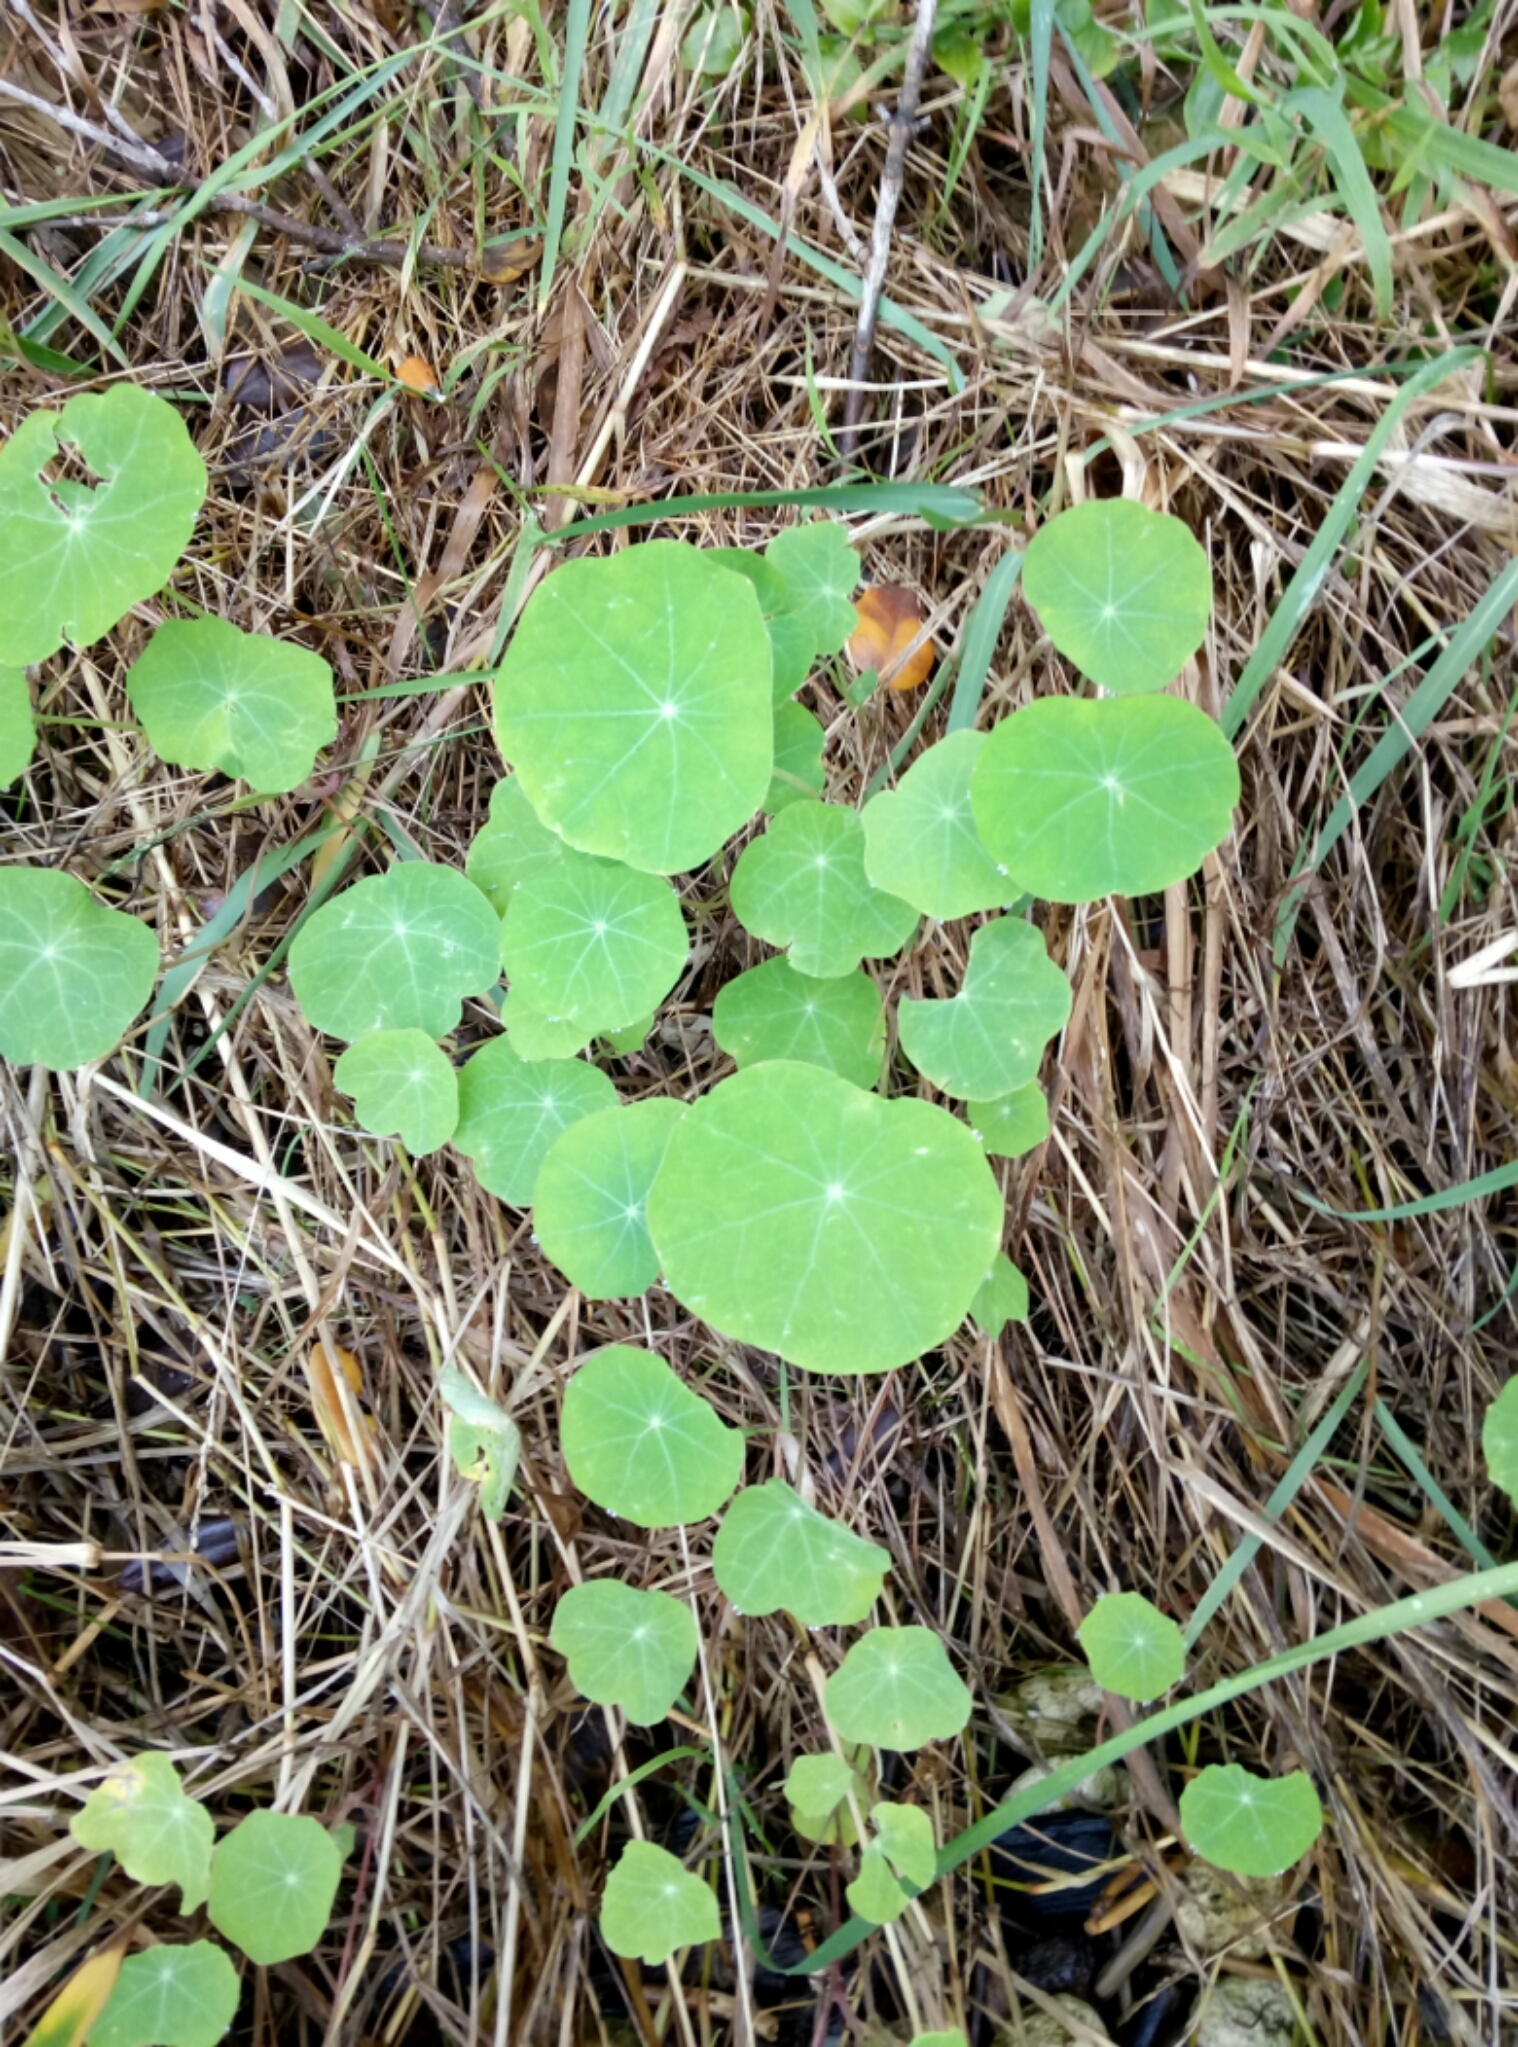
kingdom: Plantae
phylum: Tracheophyta
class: Magnoliopsida
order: Brassicales
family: Tropaeolaceae
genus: Tropaeolum
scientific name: Tropaeolum majus
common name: Nasturtium
